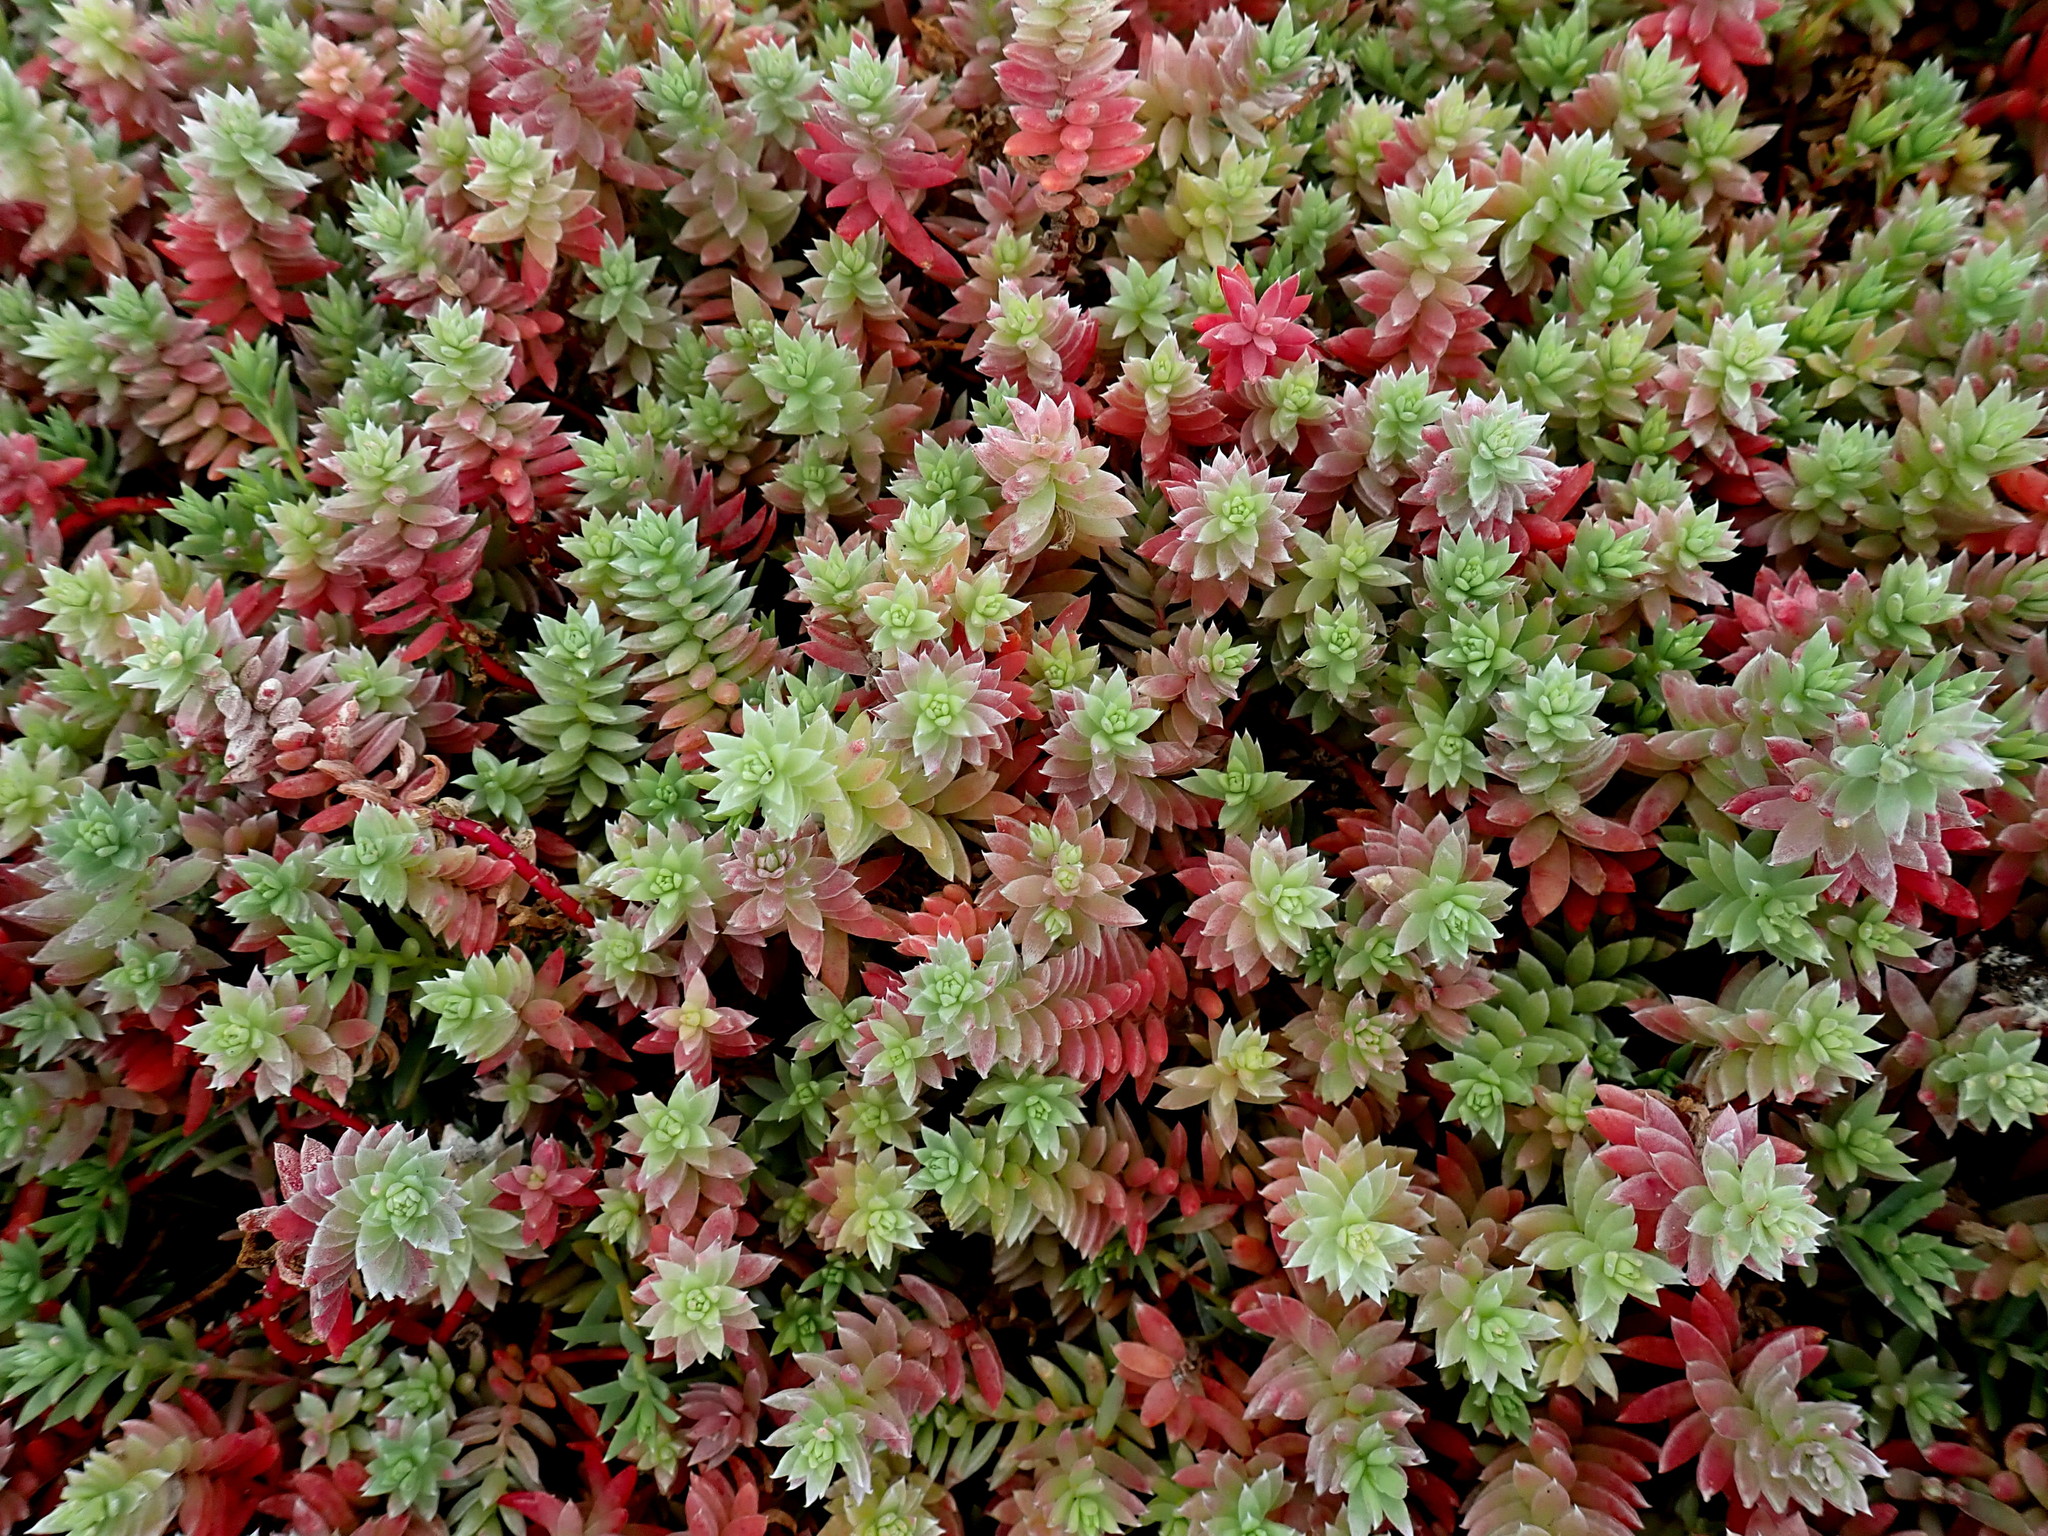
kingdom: Plantae
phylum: Tracheophyta
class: Magnoliopsida
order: Caryophyllales
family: Amaranthaceae
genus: Chenolea
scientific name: Chenolea diffusa
